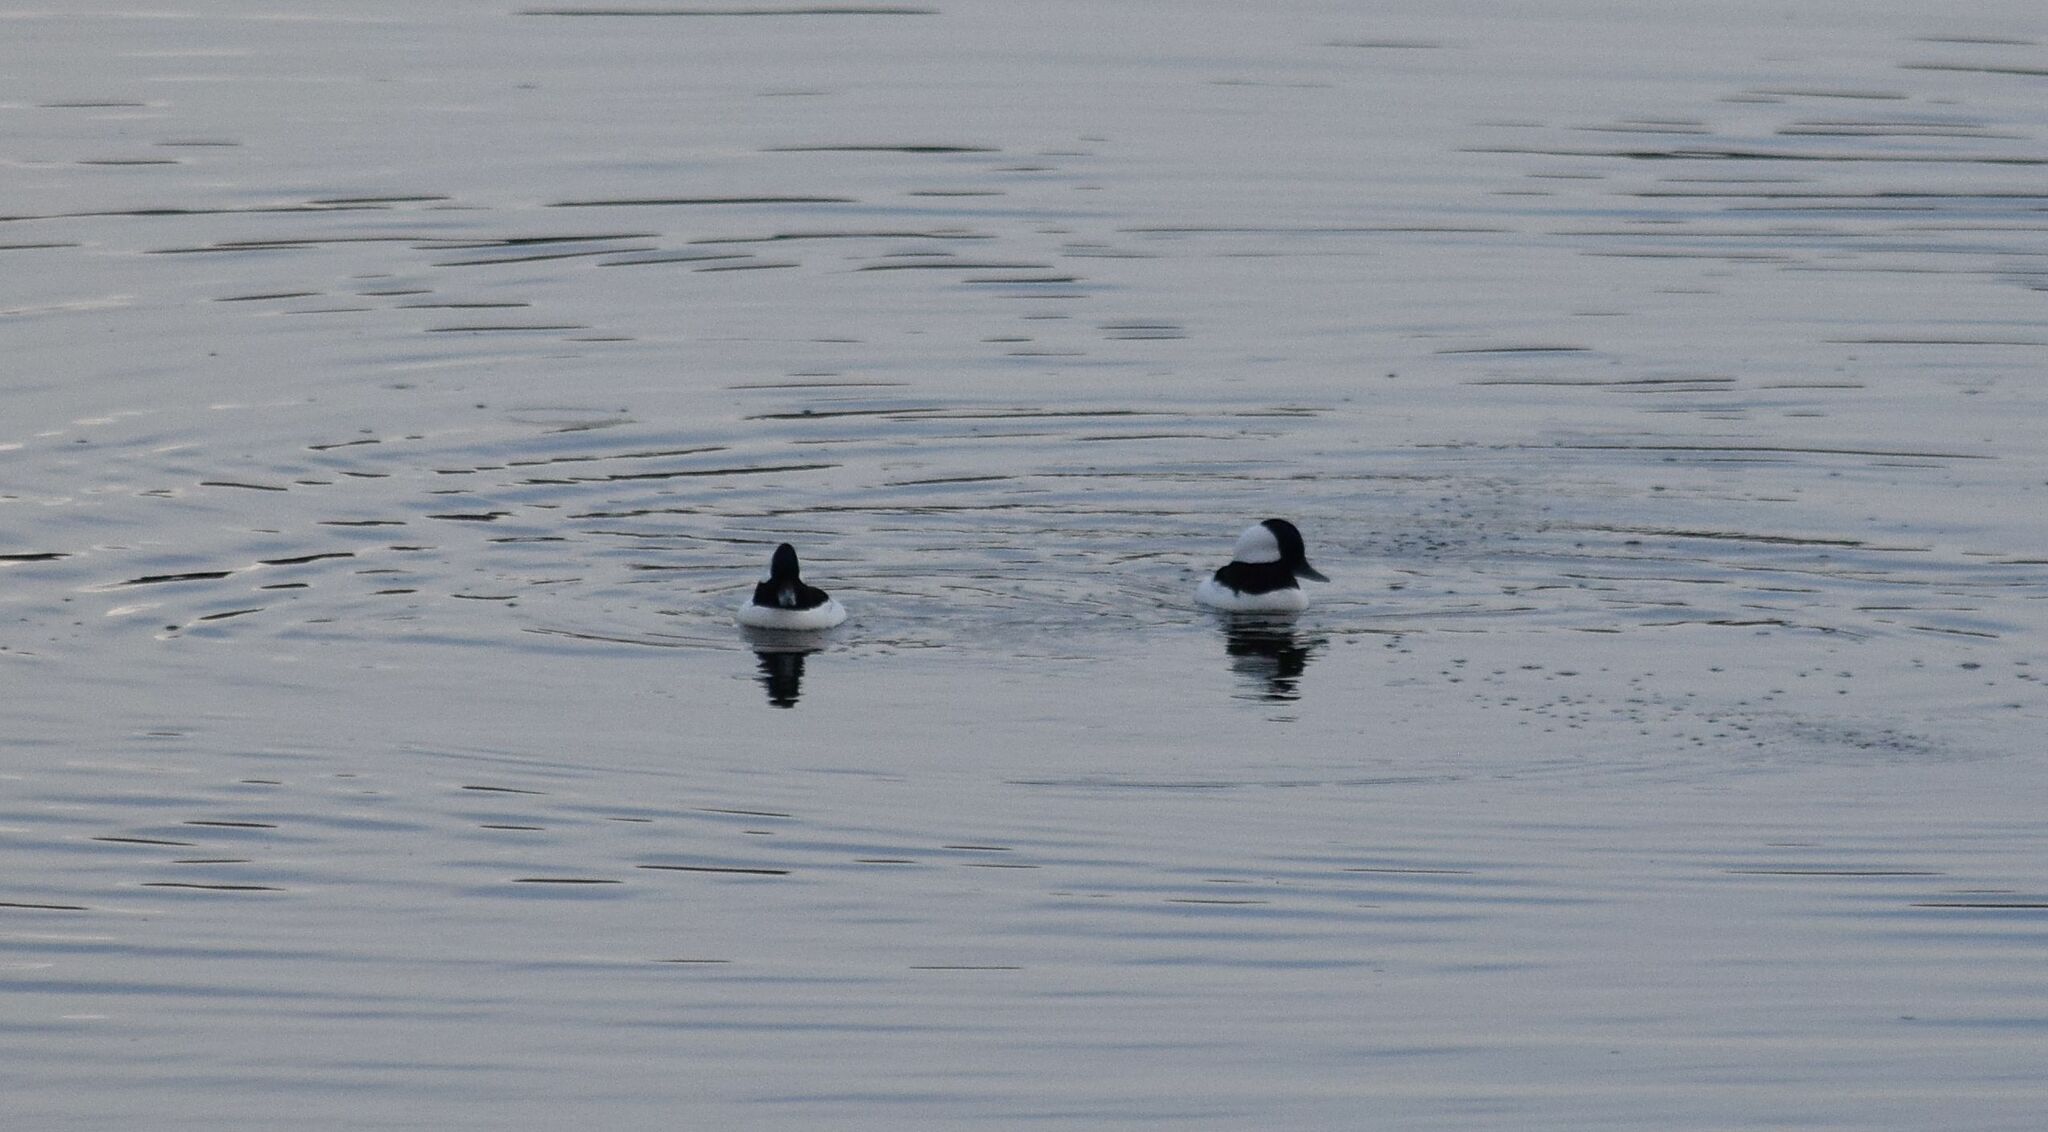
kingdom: Animalia
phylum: Chordata
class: Aves
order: Anseriformes
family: Anatidae
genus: Bucephala
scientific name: Bucephala albeola
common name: Bufflehead
